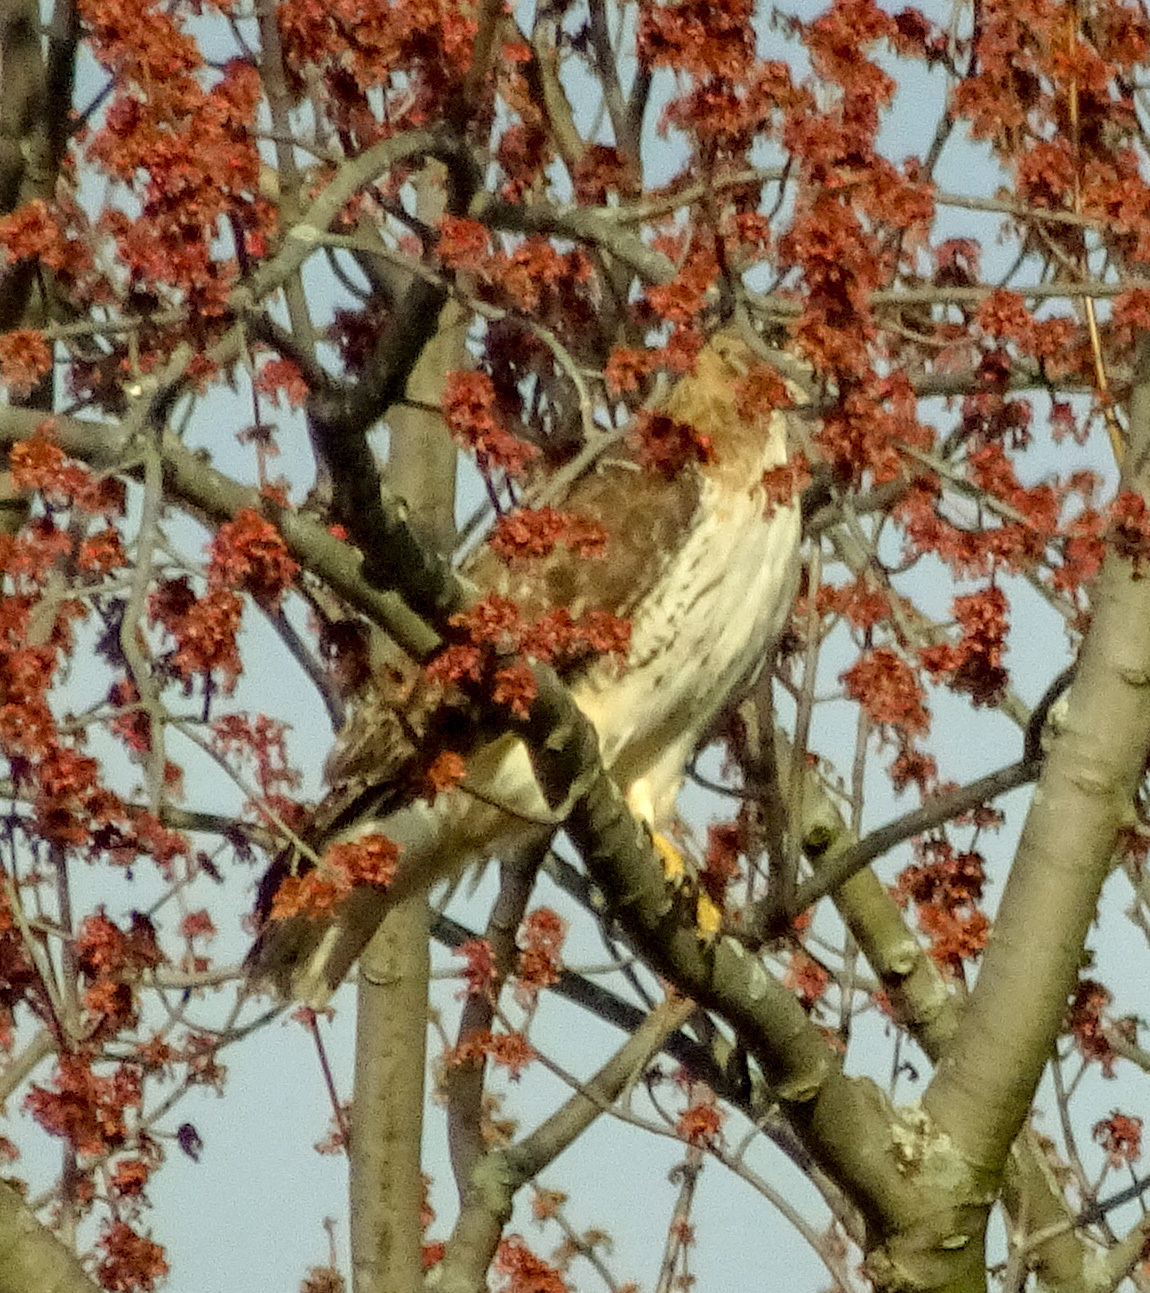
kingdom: Animalia
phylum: Chordata
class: Aves
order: Accipitriformes
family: Accipitridae
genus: Buteo
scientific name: Buteo jamaicensis
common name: Red-tailed hawk
